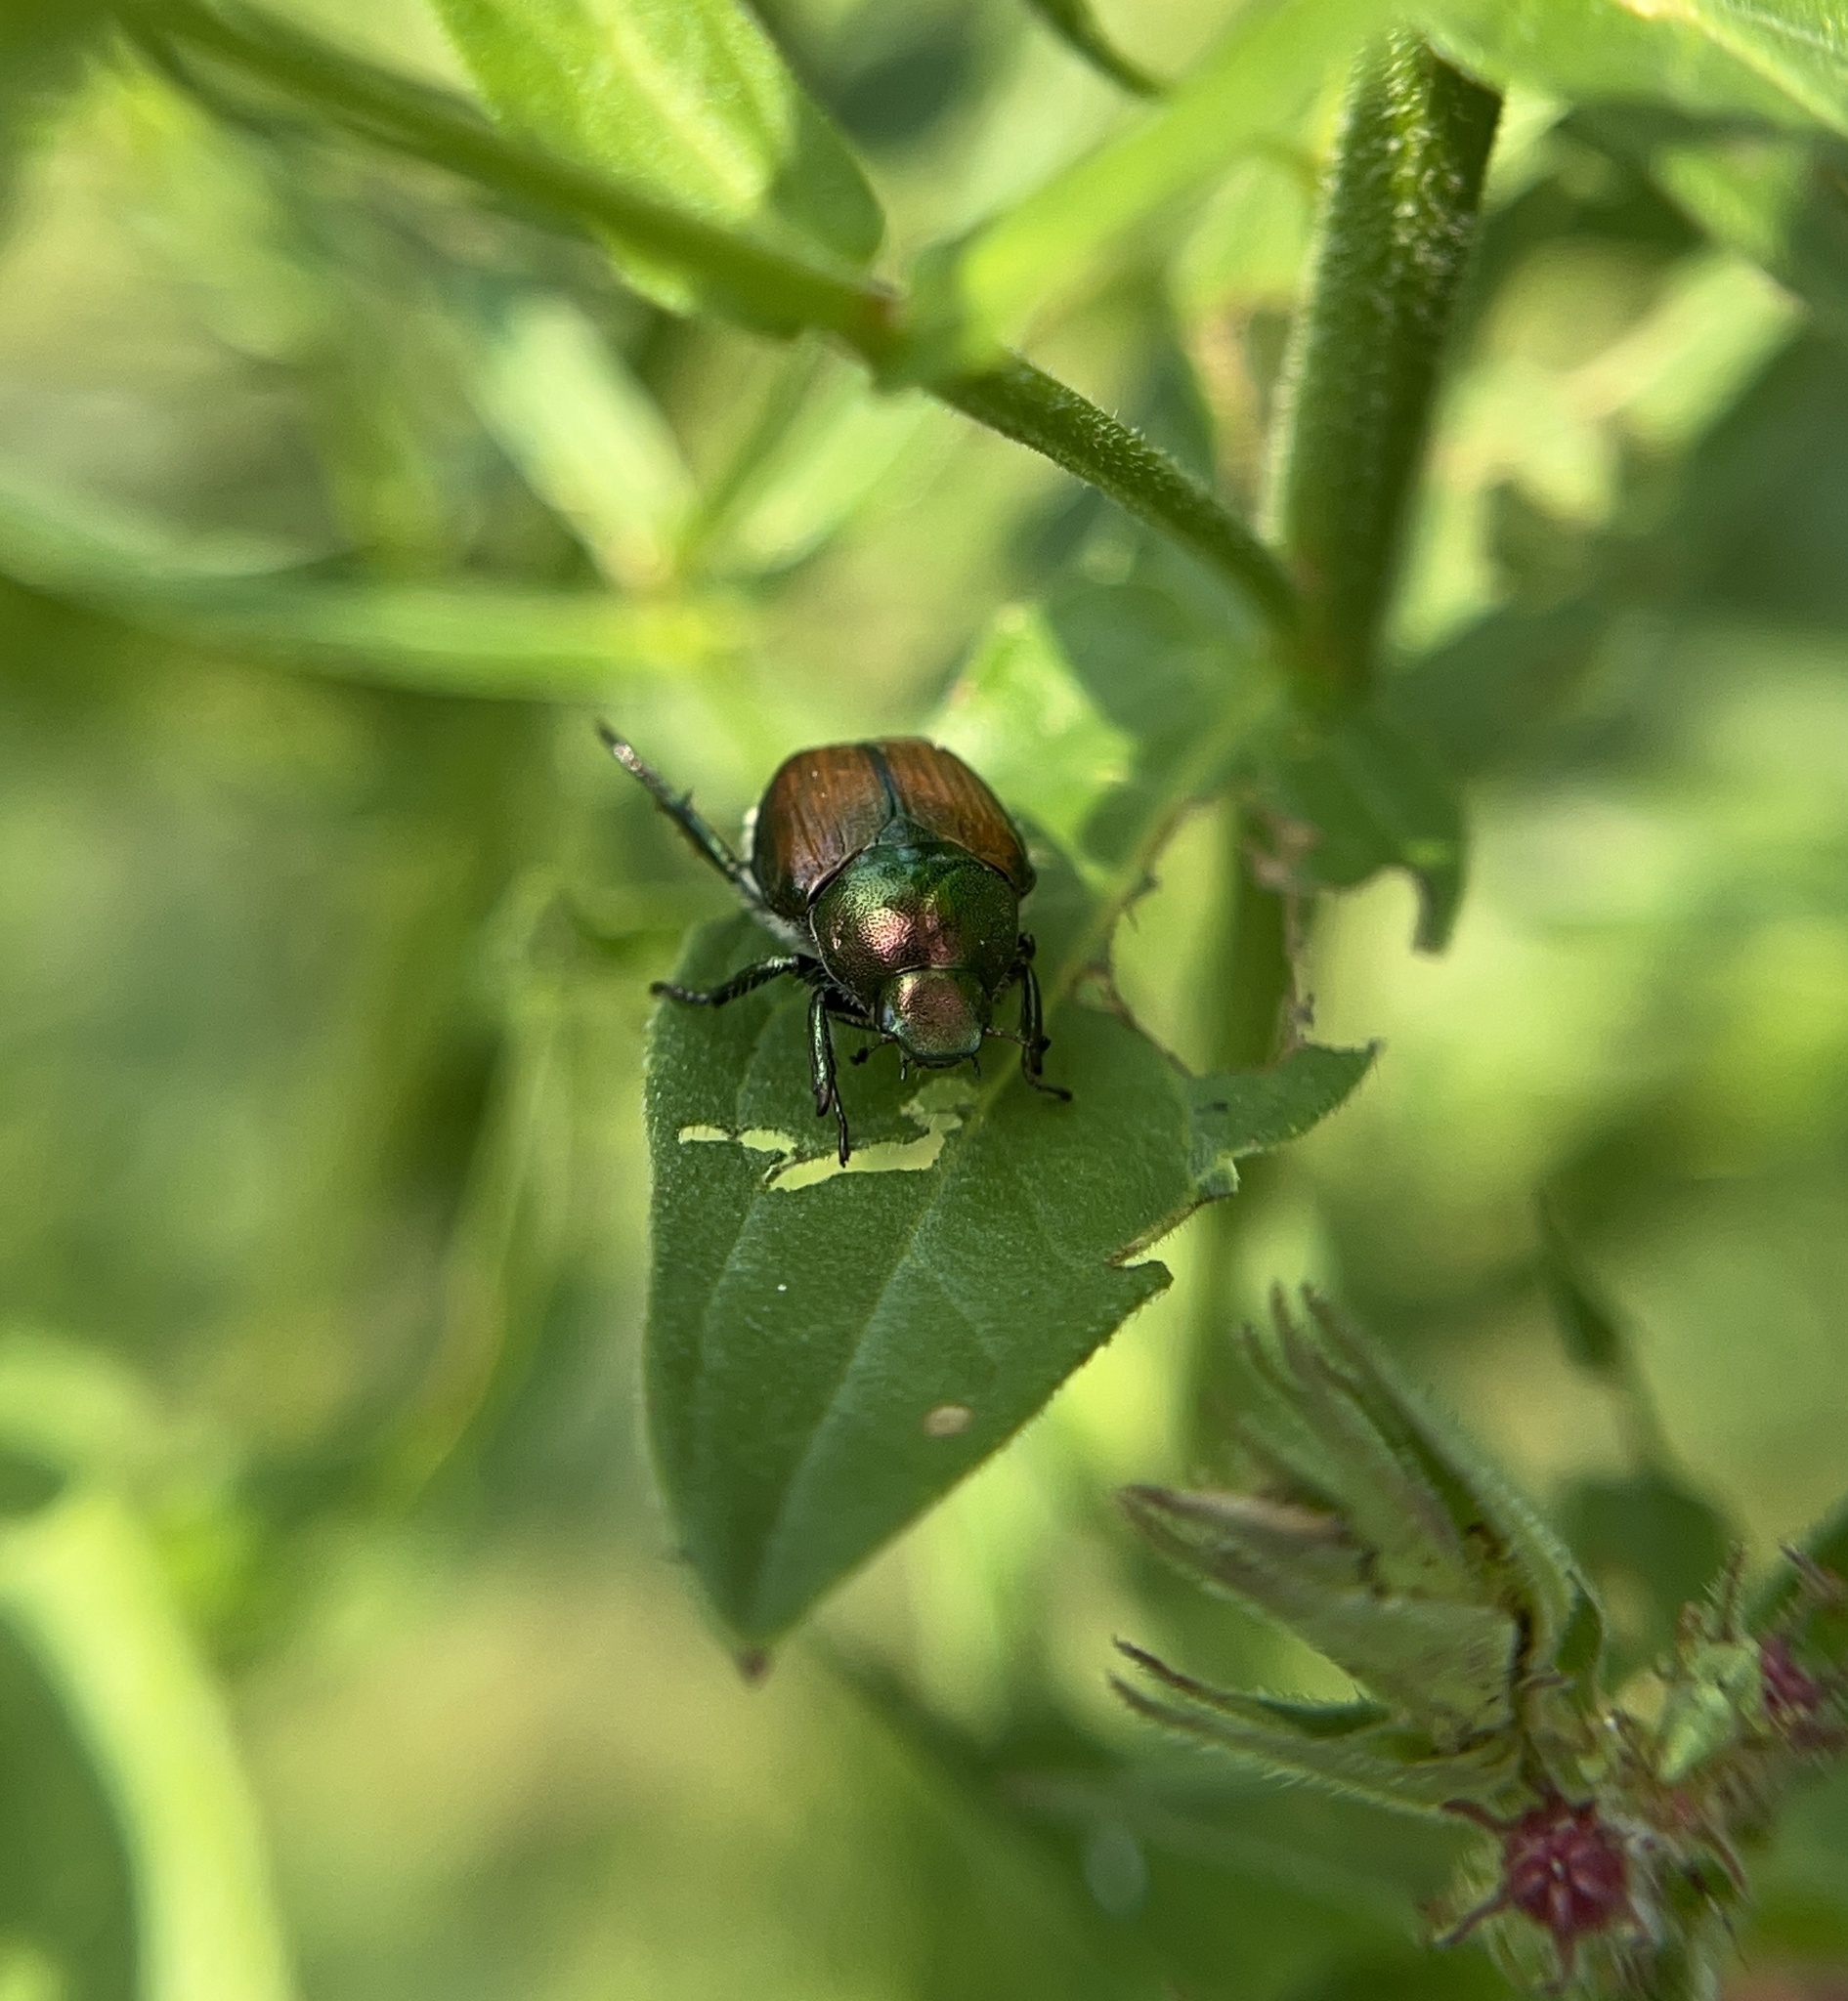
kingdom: Animalia
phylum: Arthropoda
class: Insecta
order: Coleoptera
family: Scarabaeidae
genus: Popillia
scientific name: Popillia japonica
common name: Japanese beetle
